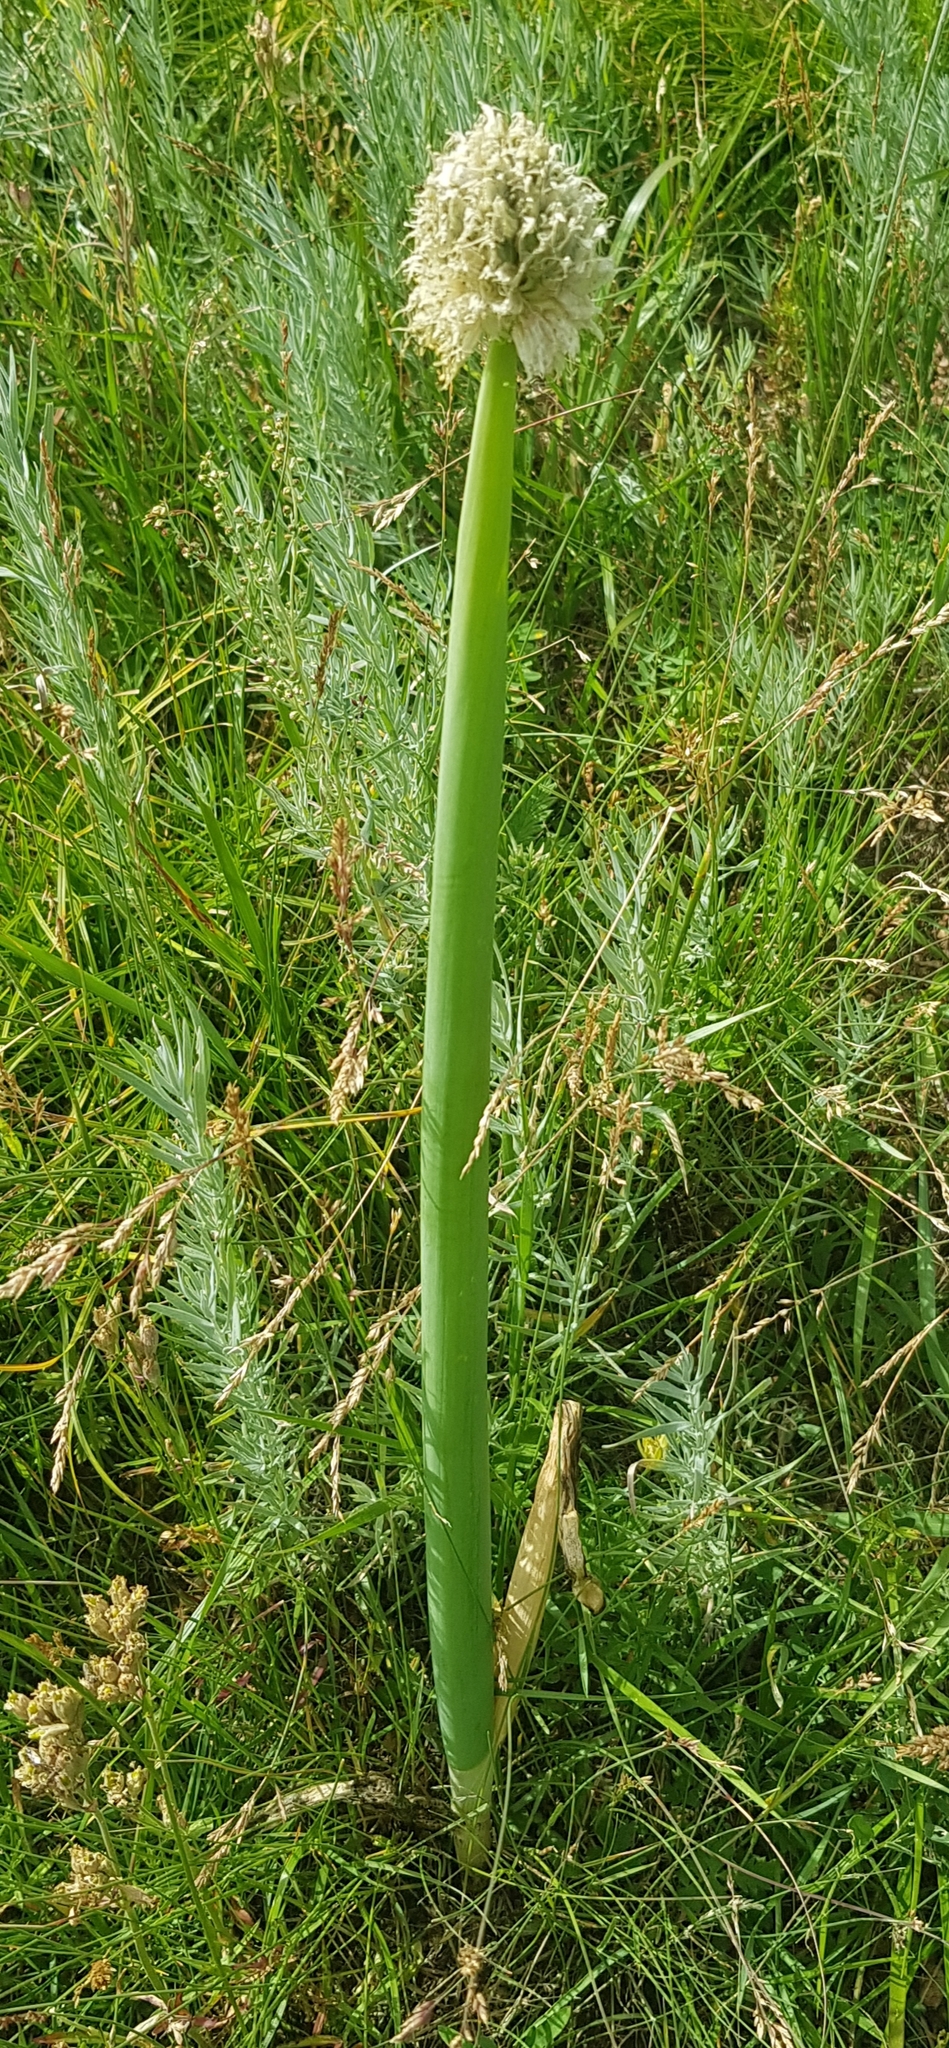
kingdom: Plantae
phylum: Tracheophyta
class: Liliopsida
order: Asparagales
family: Amaryllidaceae
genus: Allium
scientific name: Allium altaicum
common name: Altai onion
